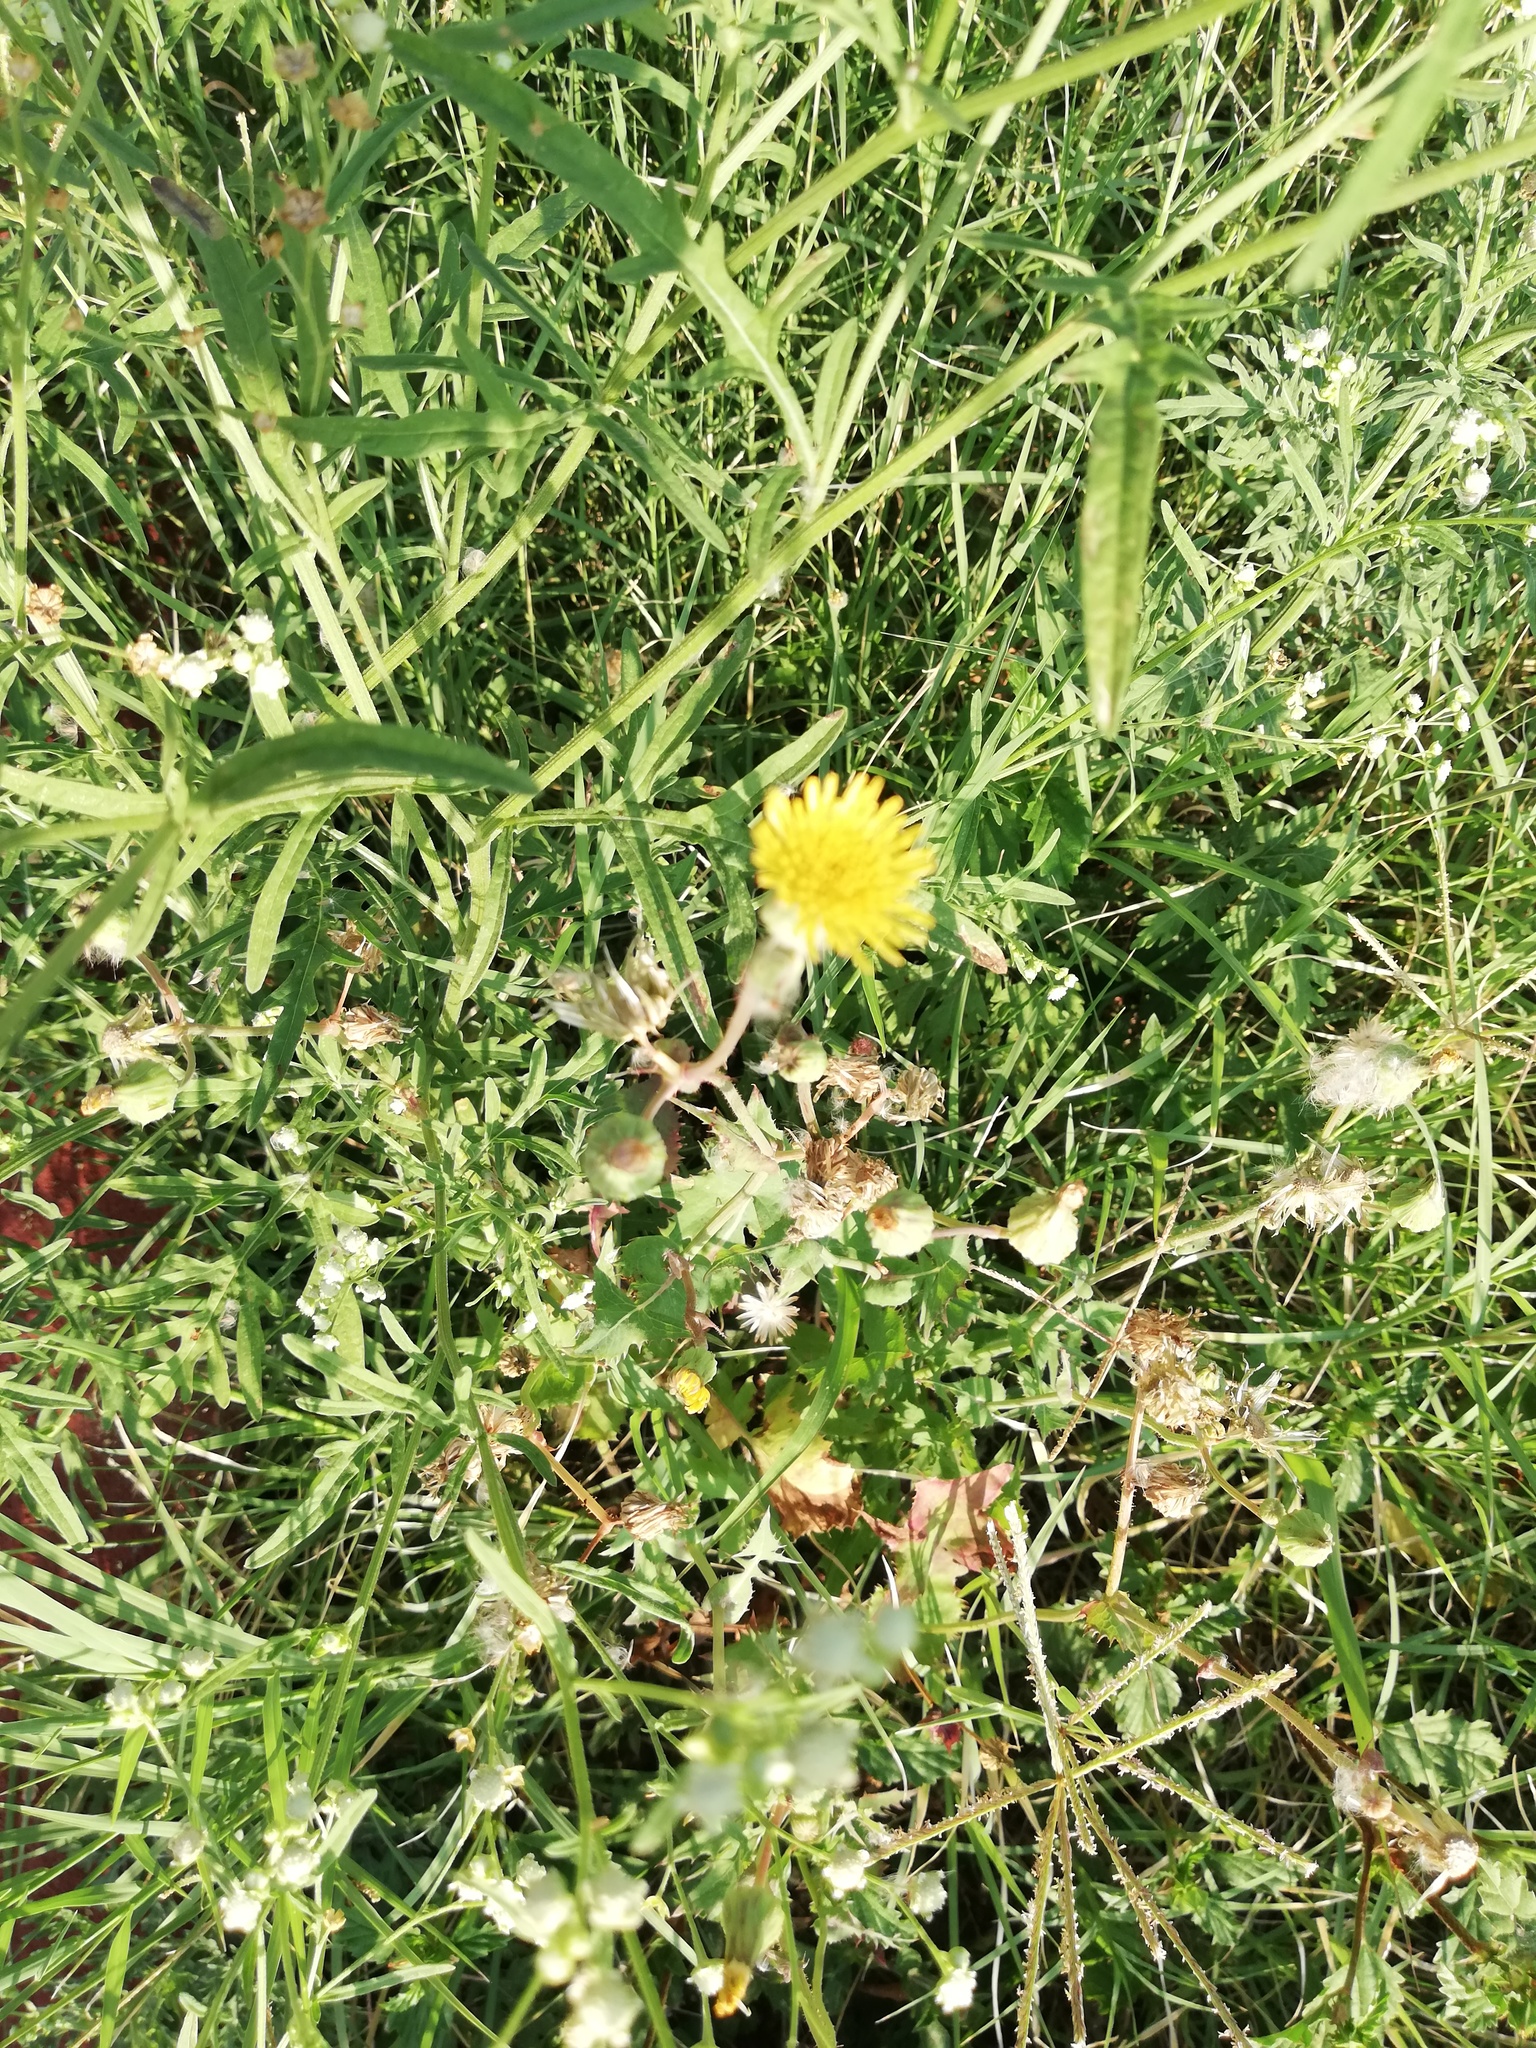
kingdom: Plantae
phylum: Tracheophyta
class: Magnoliopsida
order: Asterales
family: Asteraceae
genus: Taraxacum
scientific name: Taraxacum officinale
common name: Common dandelion
